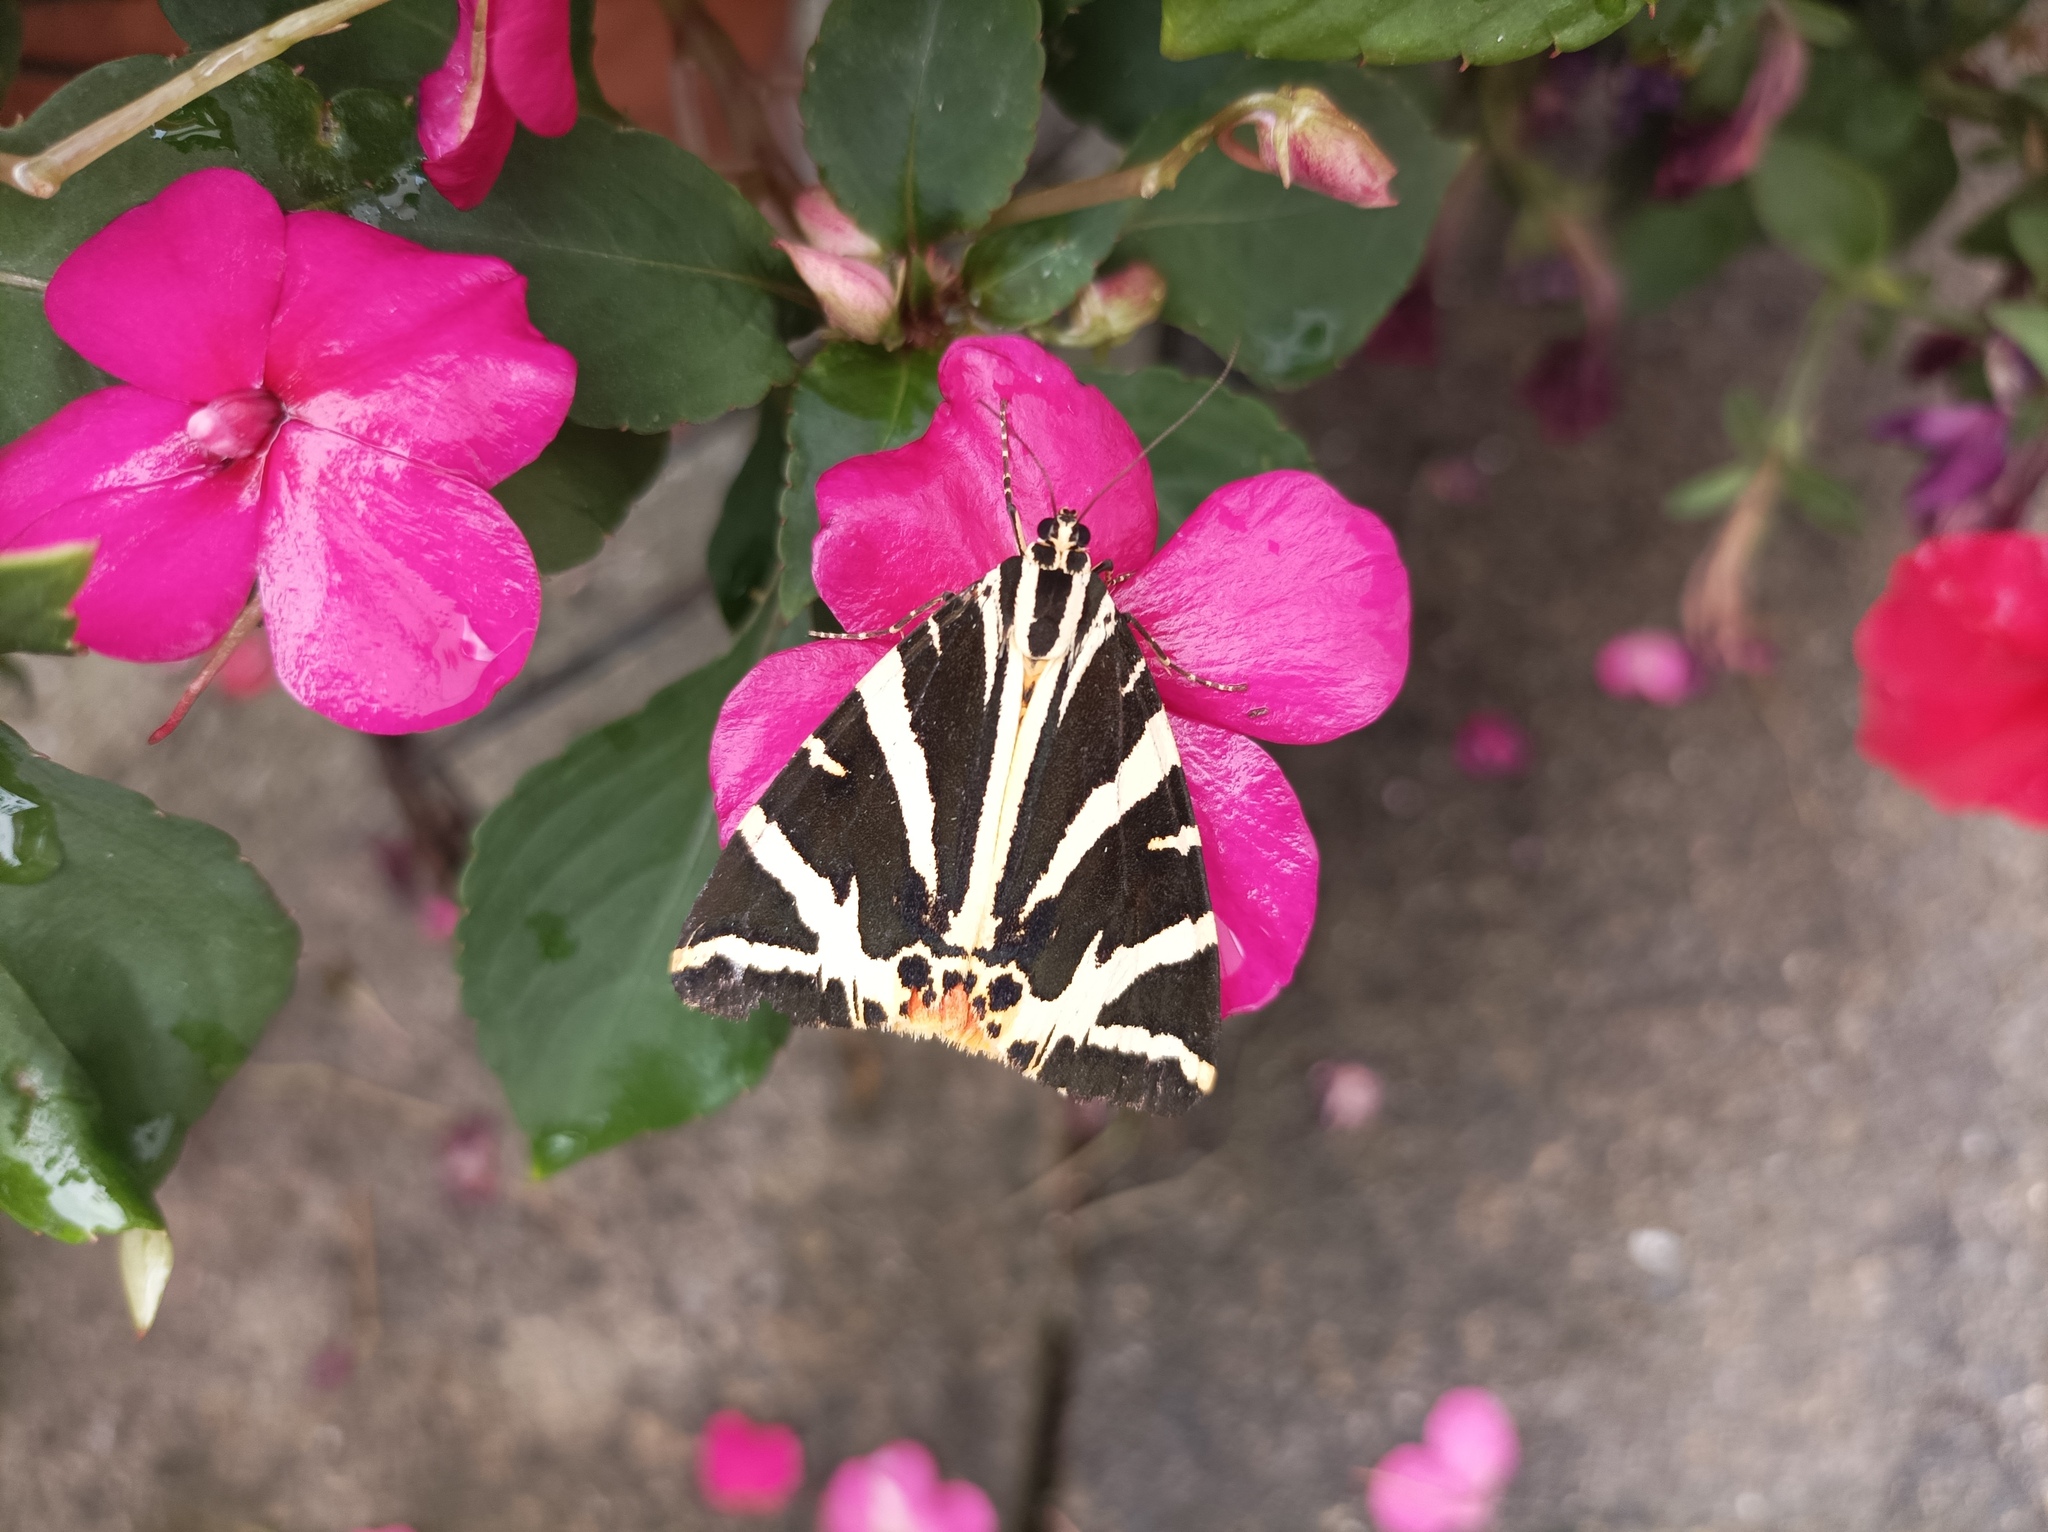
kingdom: Animalia
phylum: Arthropoda
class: Insecta
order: Lepidoptera
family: Erebidae
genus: Euplagia
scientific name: Euplagia quadripunctaria
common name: Jersey tiger
